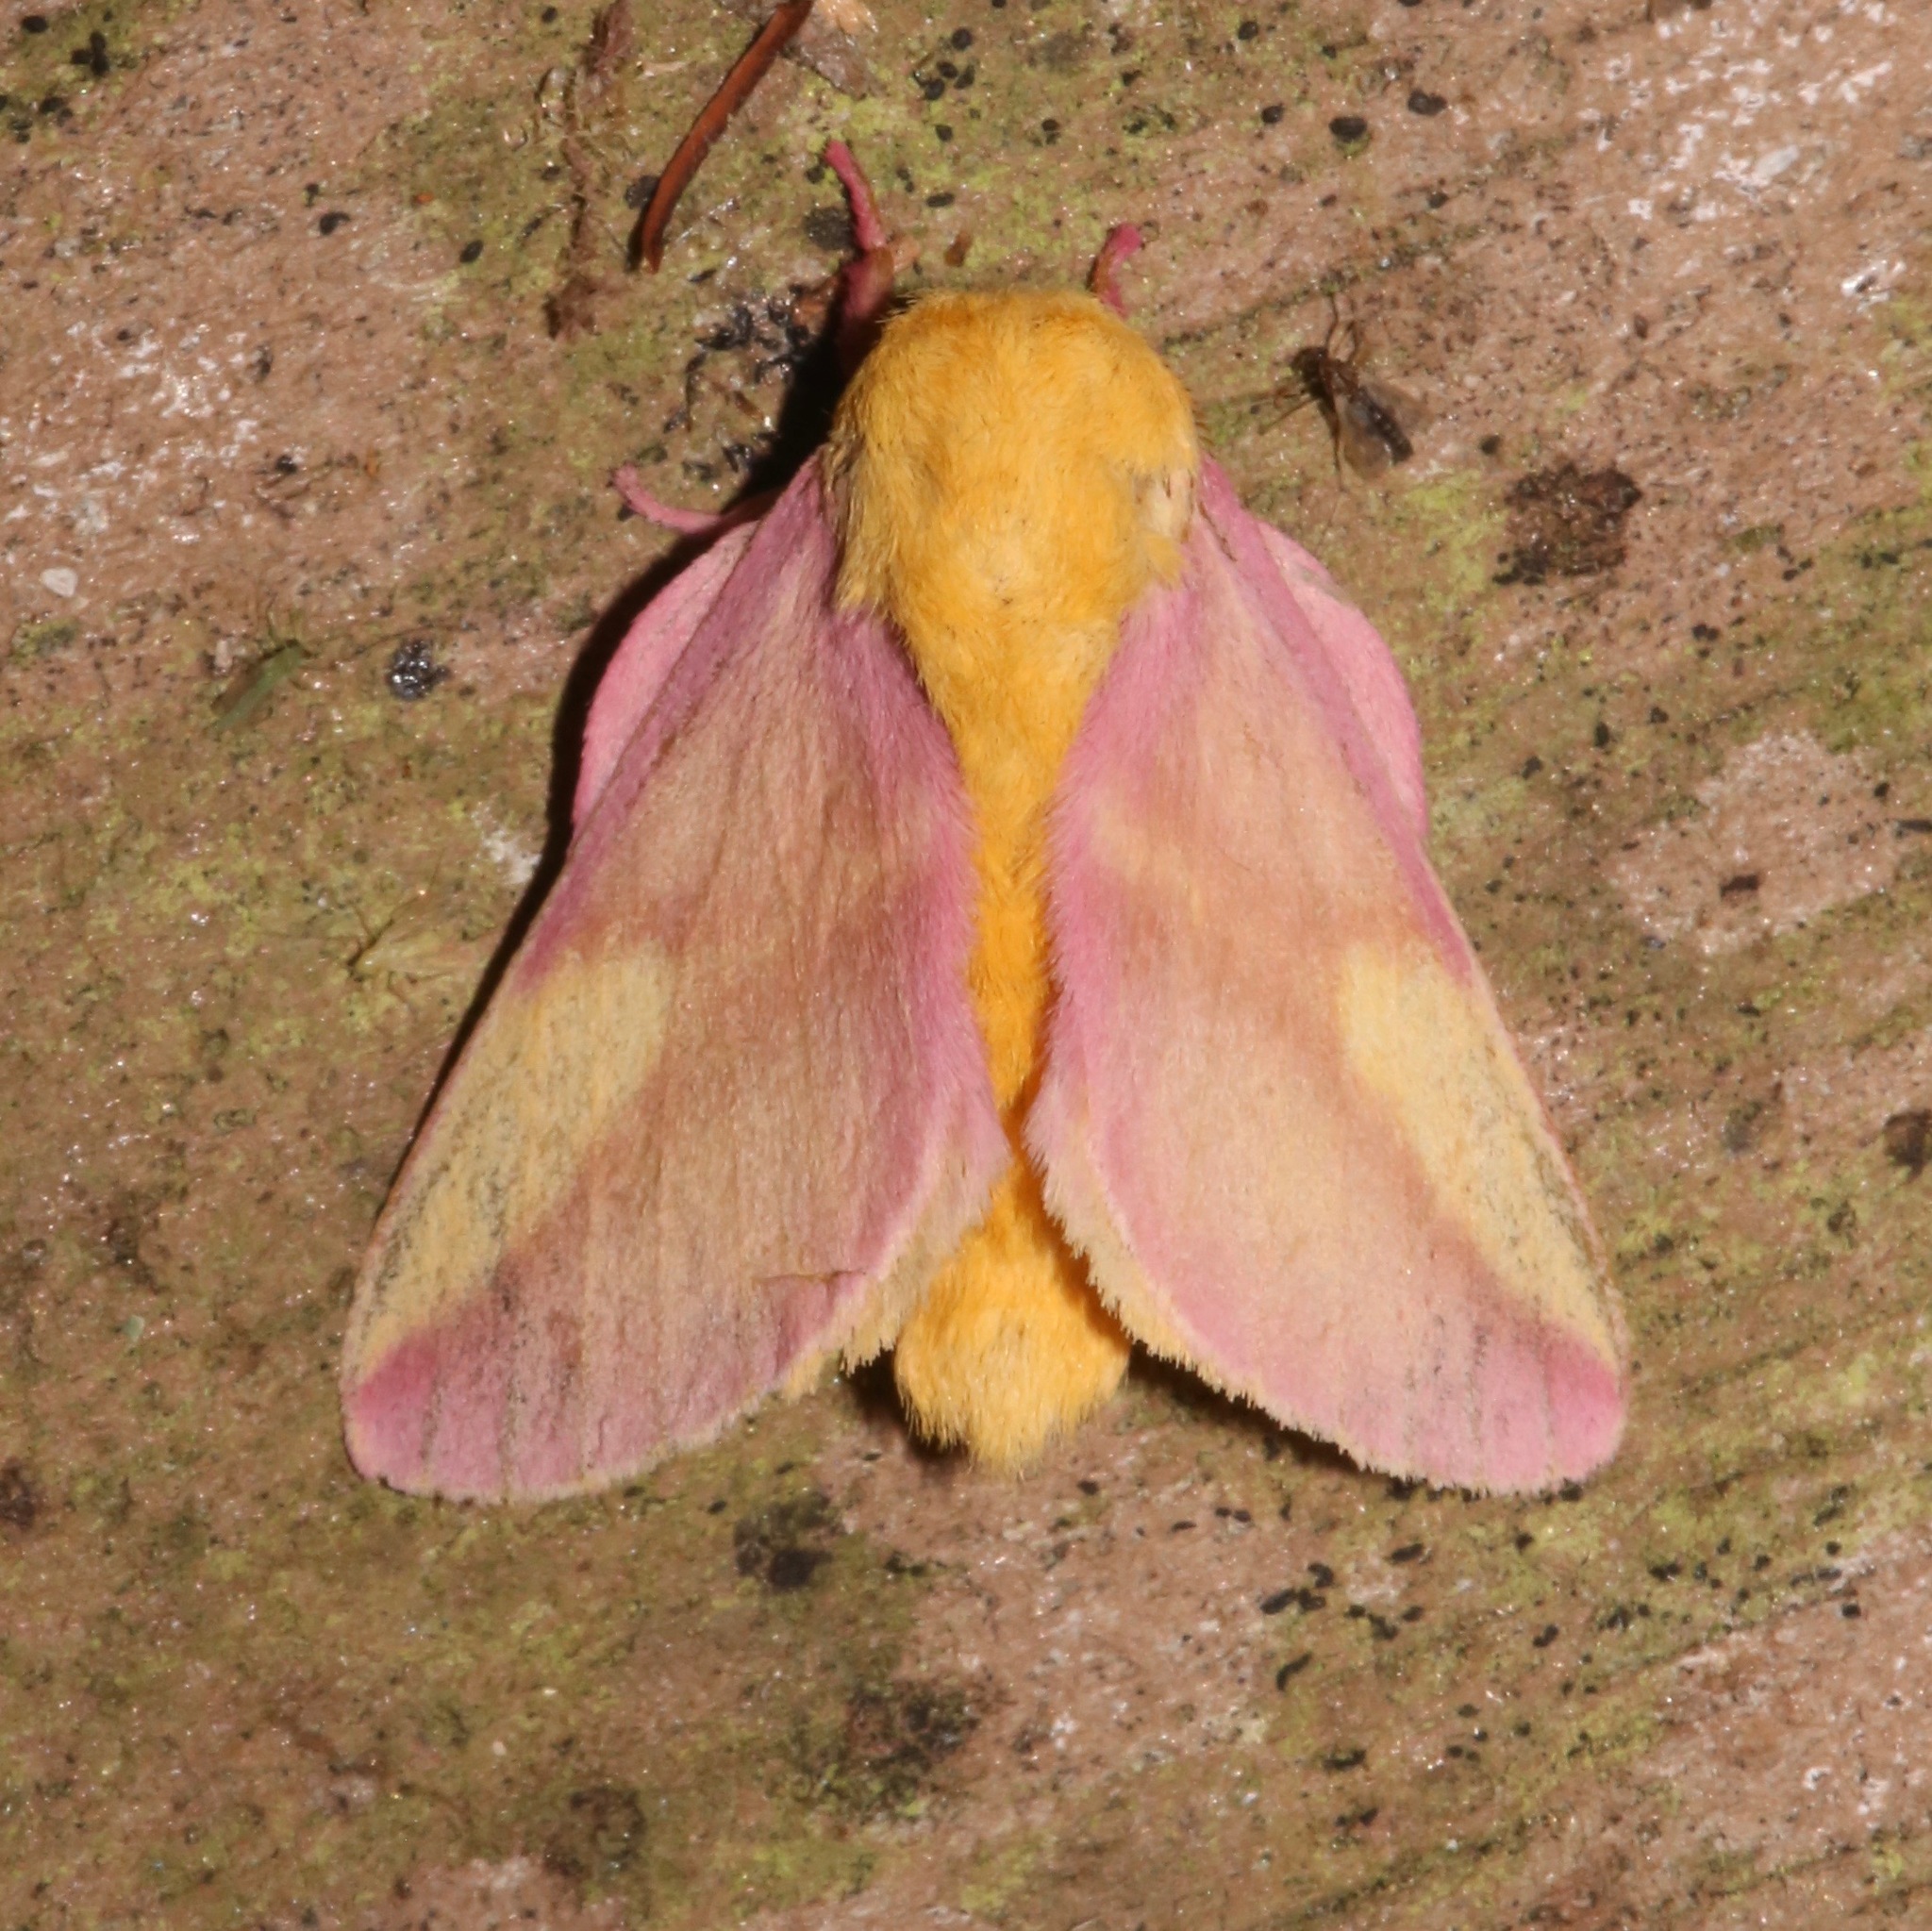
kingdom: Animalia
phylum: Arthropoda
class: Insecta
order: Lepidoptera
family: Saturniidae
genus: Dryocampa
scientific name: Dryocampa rubicunda
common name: Rosy maple moth
